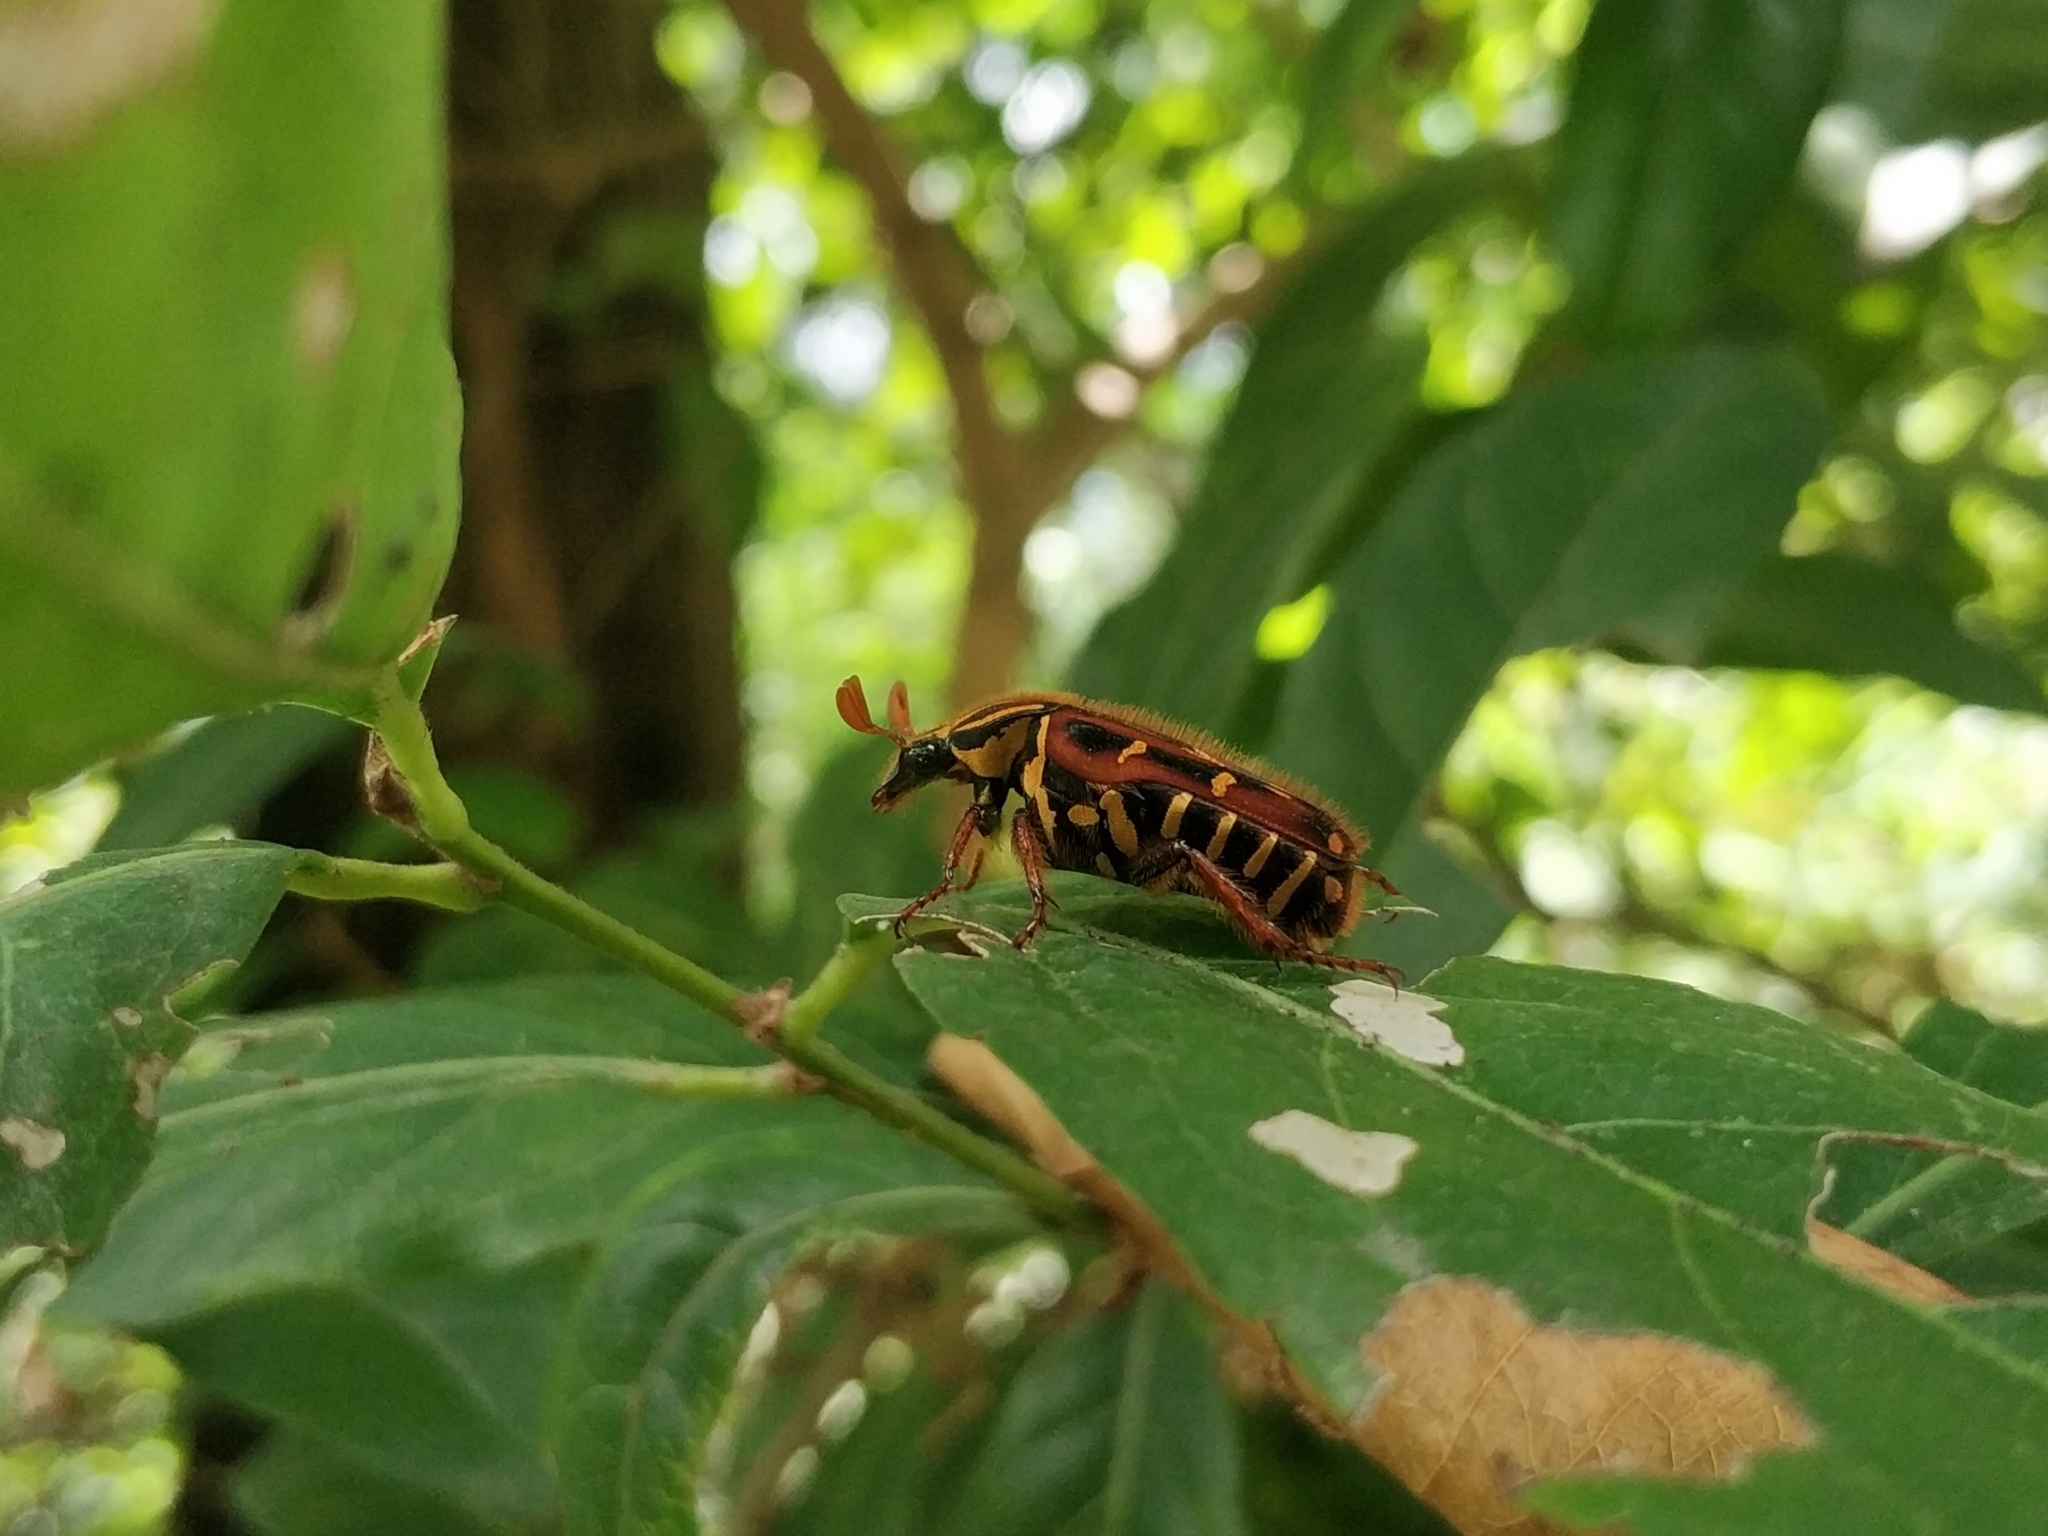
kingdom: Animalia
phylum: Arthropoda
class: Insecta
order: Coleoptera
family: Scarabaeidae
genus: Euselates
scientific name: Euselates magna
